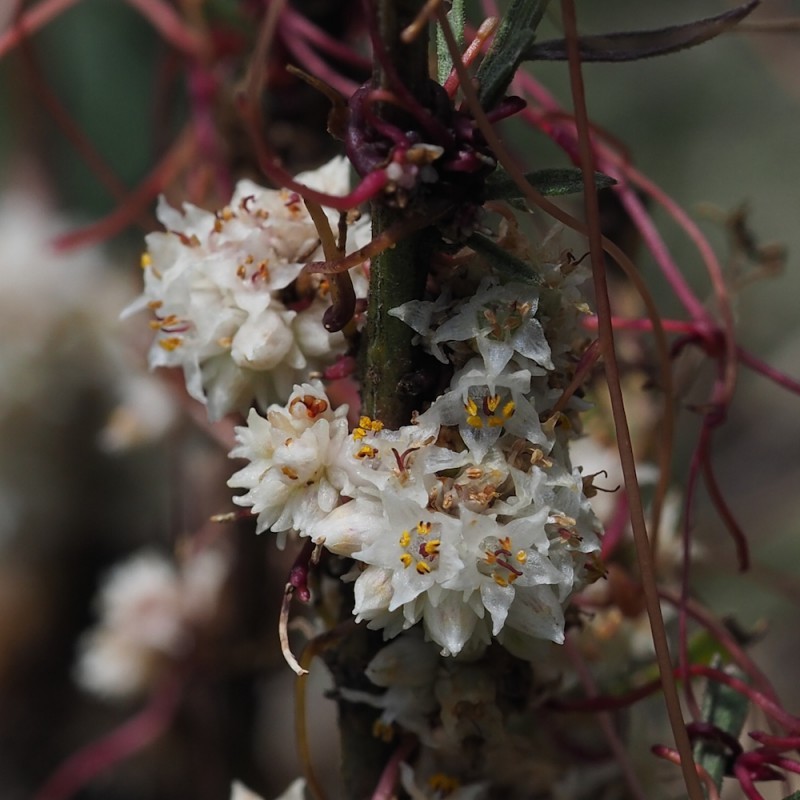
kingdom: Plantae
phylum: Tracheophyta
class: Magnoliopsida
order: Solanales
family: Convolvulaceae
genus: Cuscuta
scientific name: Cuscuta epithymum
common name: Clover dodder
